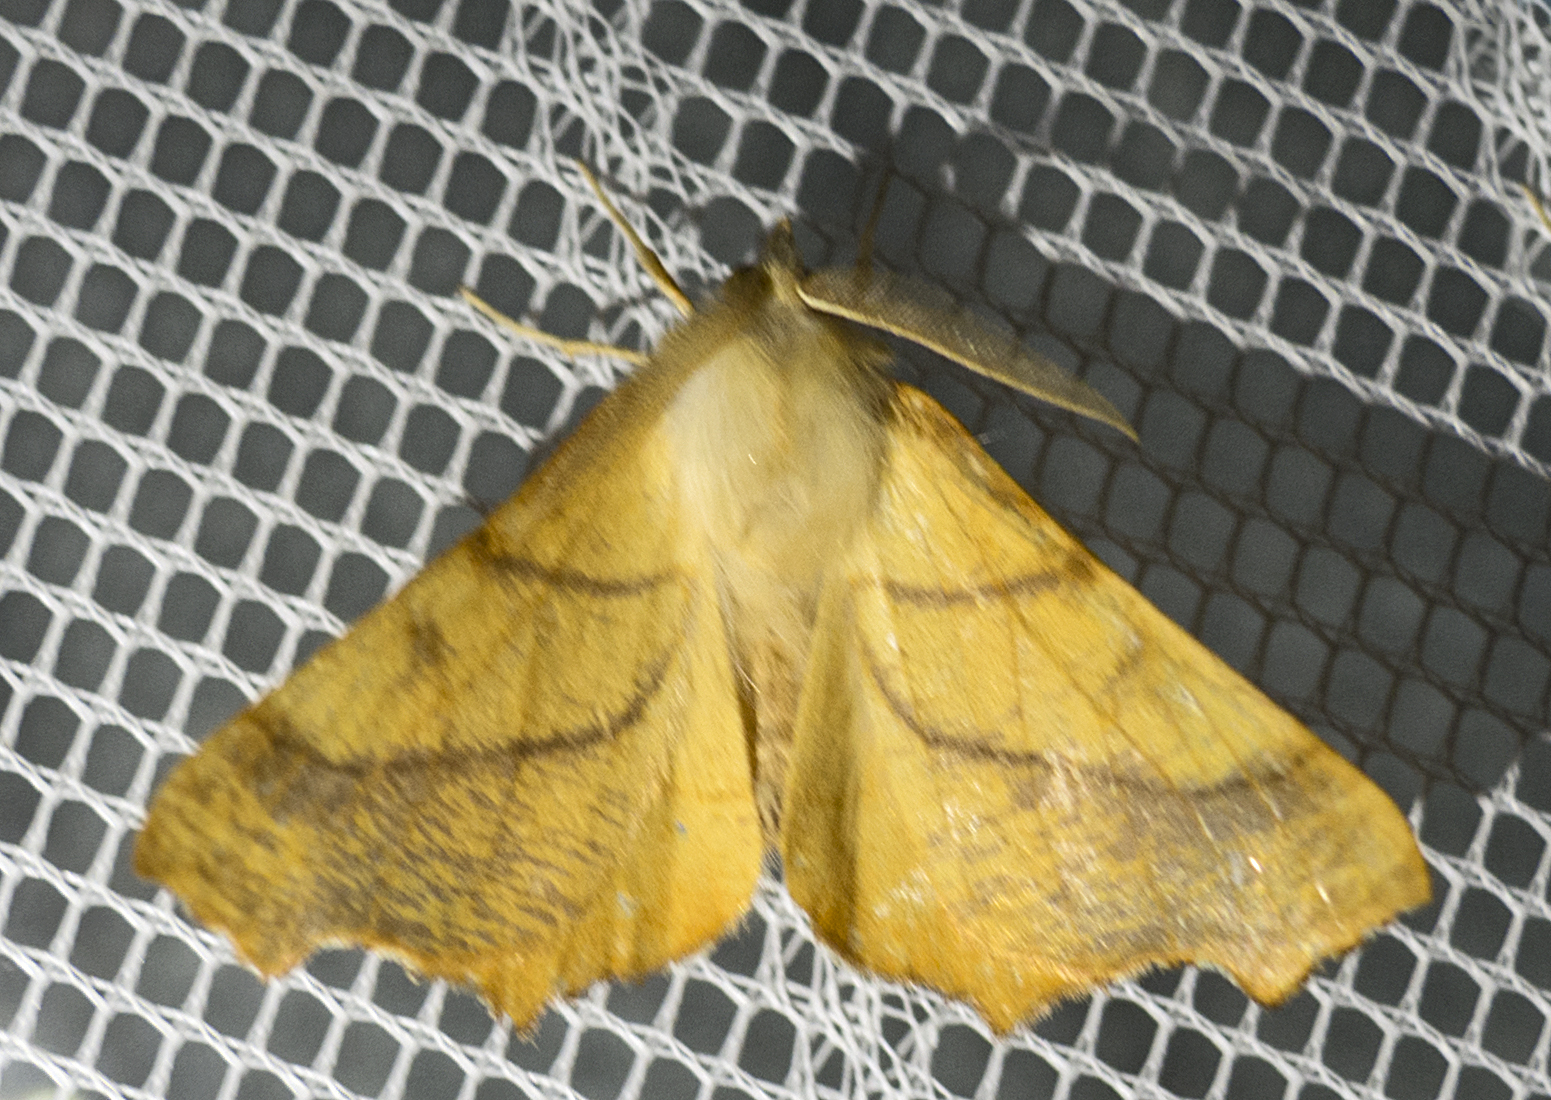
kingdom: Animalia
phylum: Arthropoda
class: Insecta
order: Lepidoptera
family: Geometridae
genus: Ennomos
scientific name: Ennomos fuscantaria
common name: Dusky thorn
